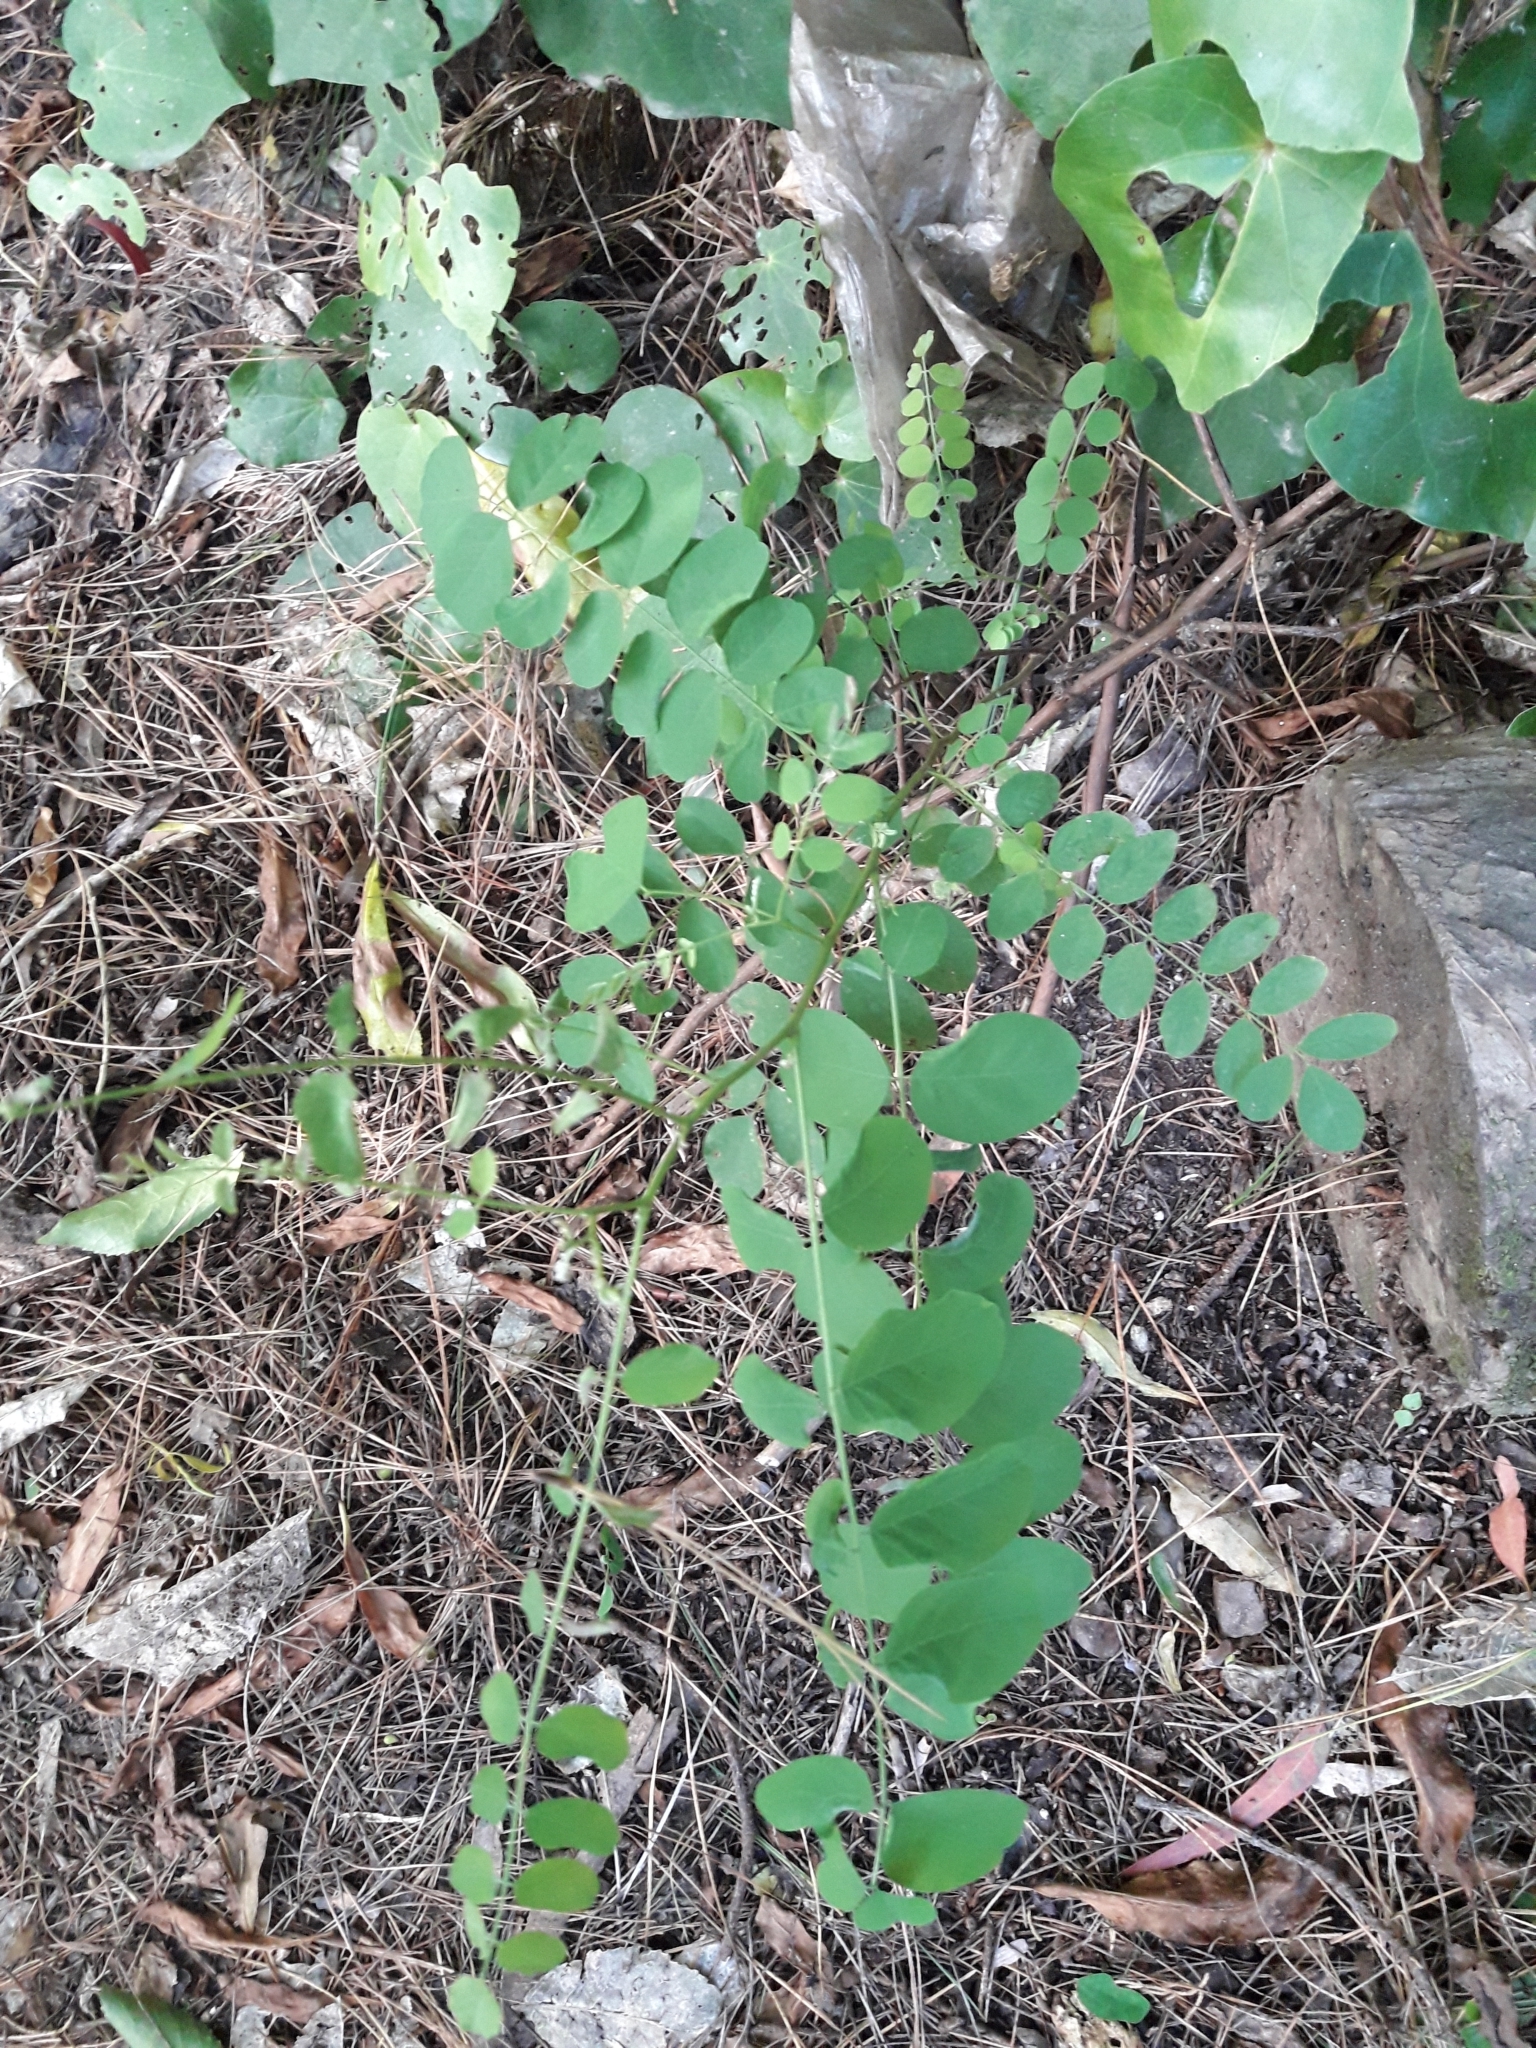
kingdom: Plantae
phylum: Tracheophyta
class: Magnoliopsida
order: Fabales
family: Fabaceae
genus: Robinia
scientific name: Robinia pseudoacacia
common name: Black locust
